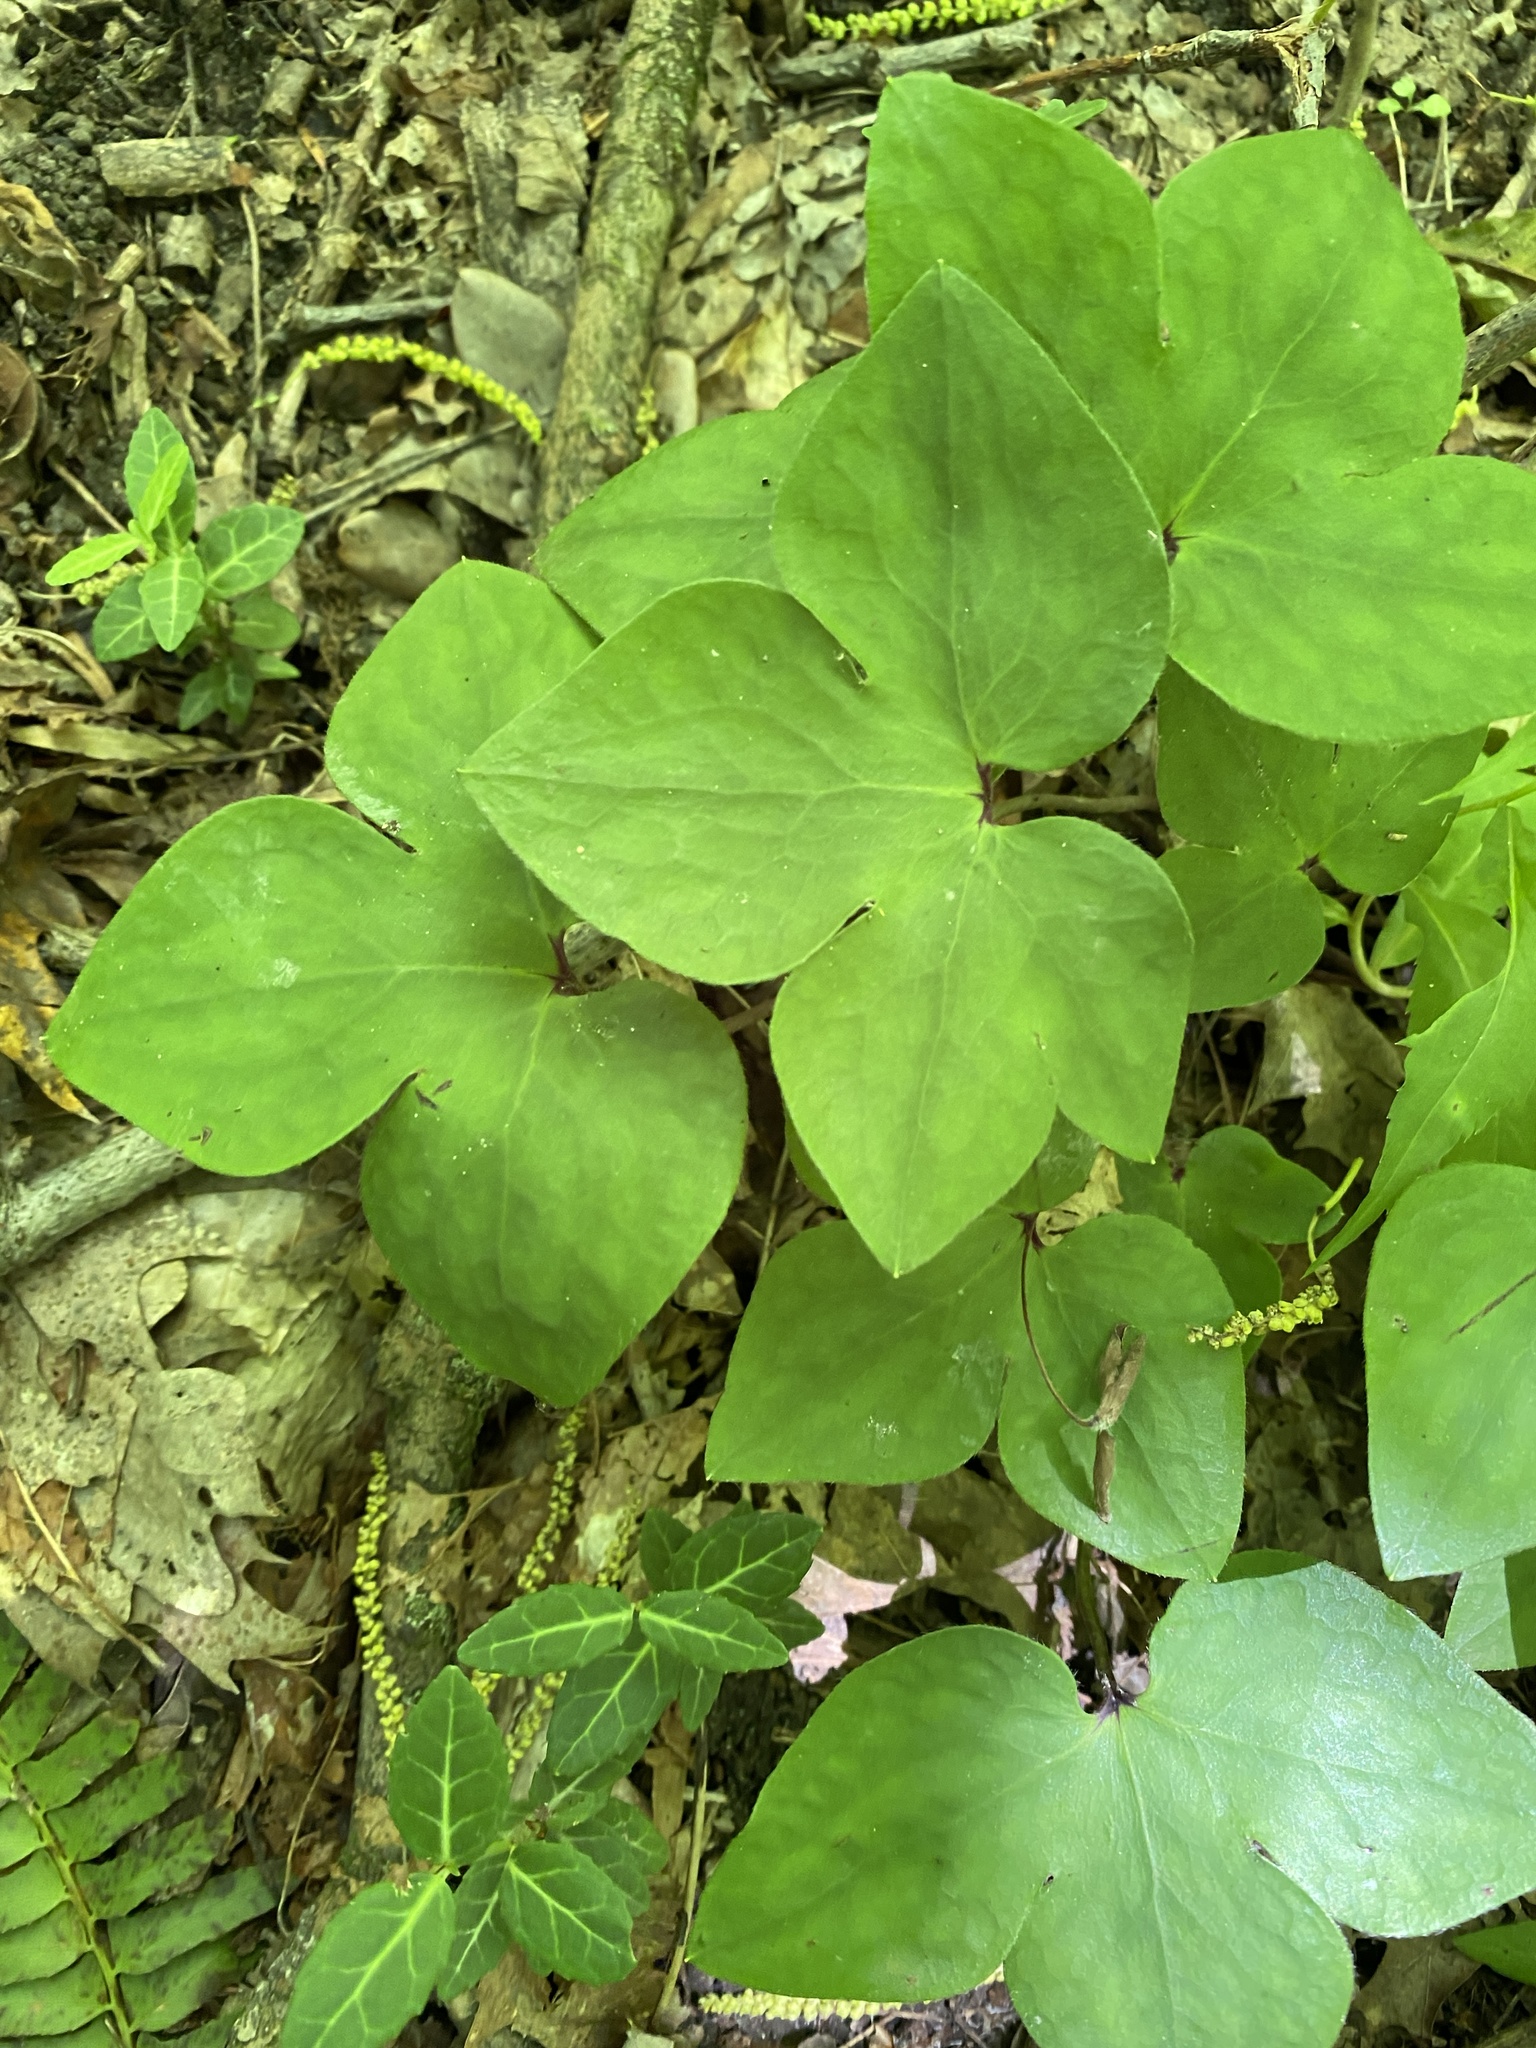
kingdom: Plantae
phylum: Tracheophyta
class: Magnoliopsida
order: Ranunculales
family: Ranunculaceae
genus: Hepatica
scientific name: Hepatica acutiloba
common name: Sharp-lobed hepatica
